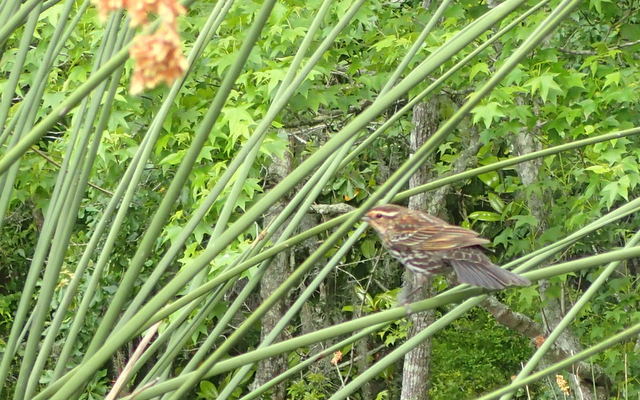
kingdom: Animalia
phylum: Chordata
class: Aves
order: Passeriformes
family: Icteridae
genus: Agelaius
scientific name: Agelaius phoeniceus
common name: Red-winged blackbird
